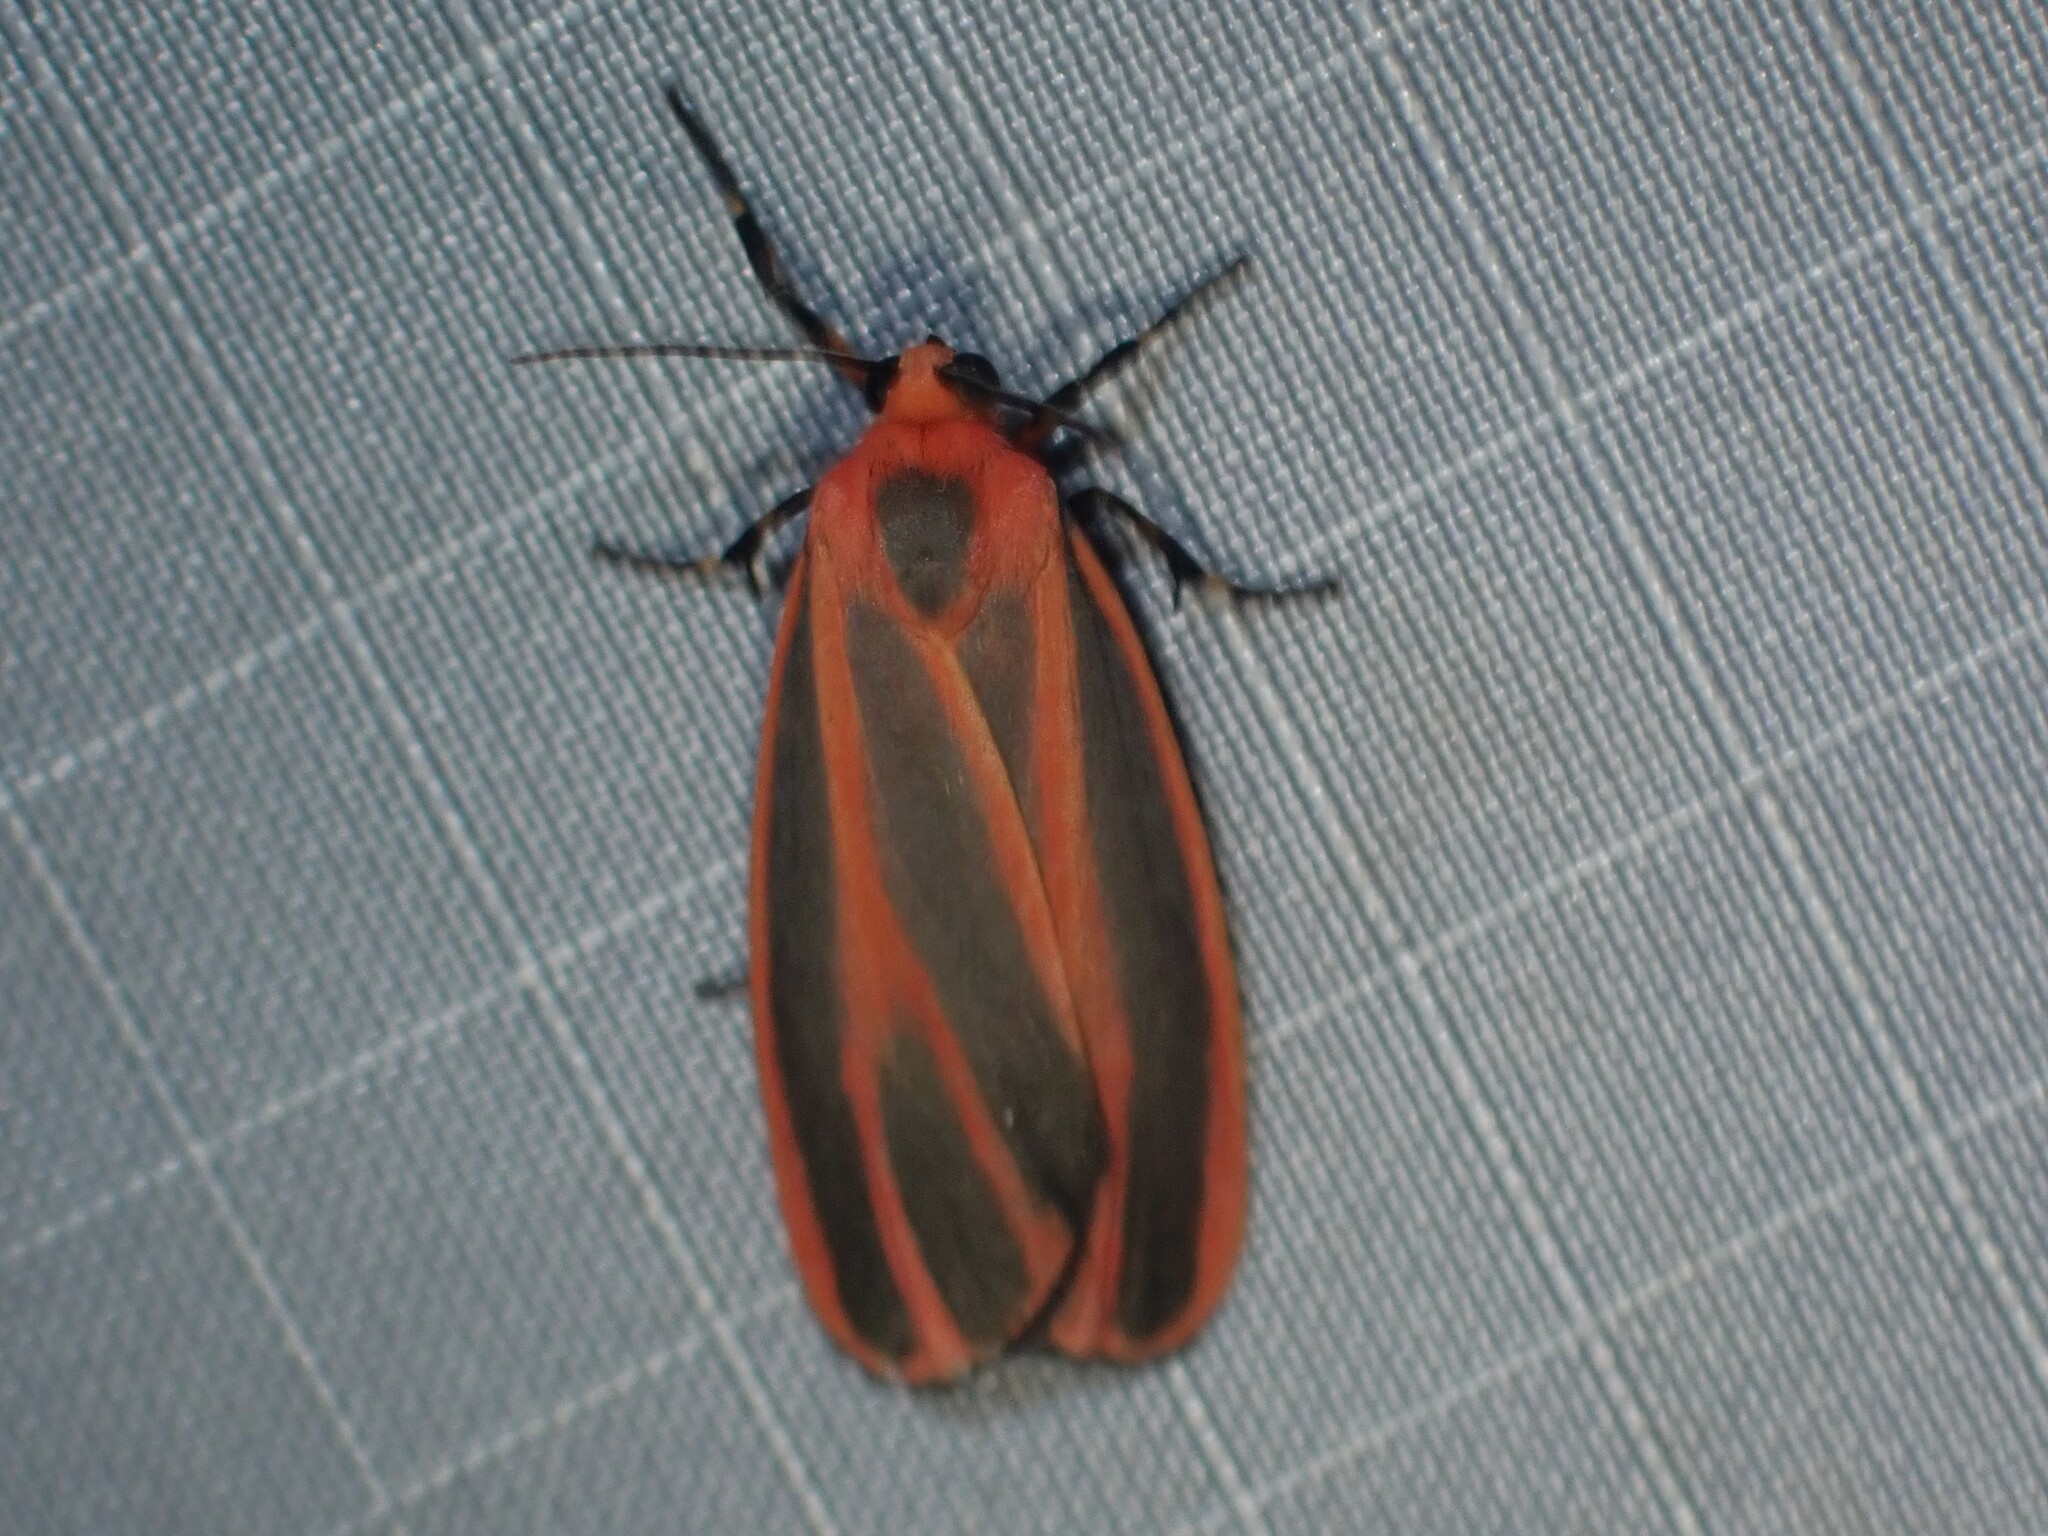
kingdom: Animalia
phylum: Arthropoda
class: Insecta
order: Lepidoptera
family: Erebidae
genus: Hypoprepia
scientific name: Hypoprepia miniata
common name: Scarlet-winged lichen moth
